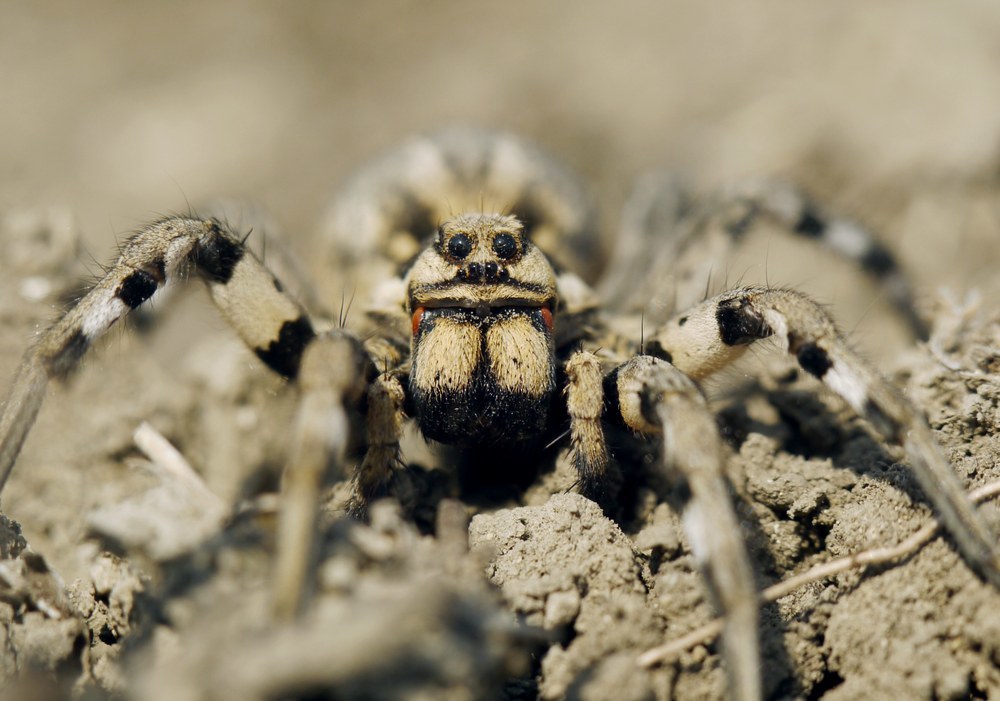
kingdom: Animalia
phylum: Arthropoda
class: Arachnida
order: Araneae
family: Lycosidae
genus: Lycosa
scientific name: Lycosa praegrandis
